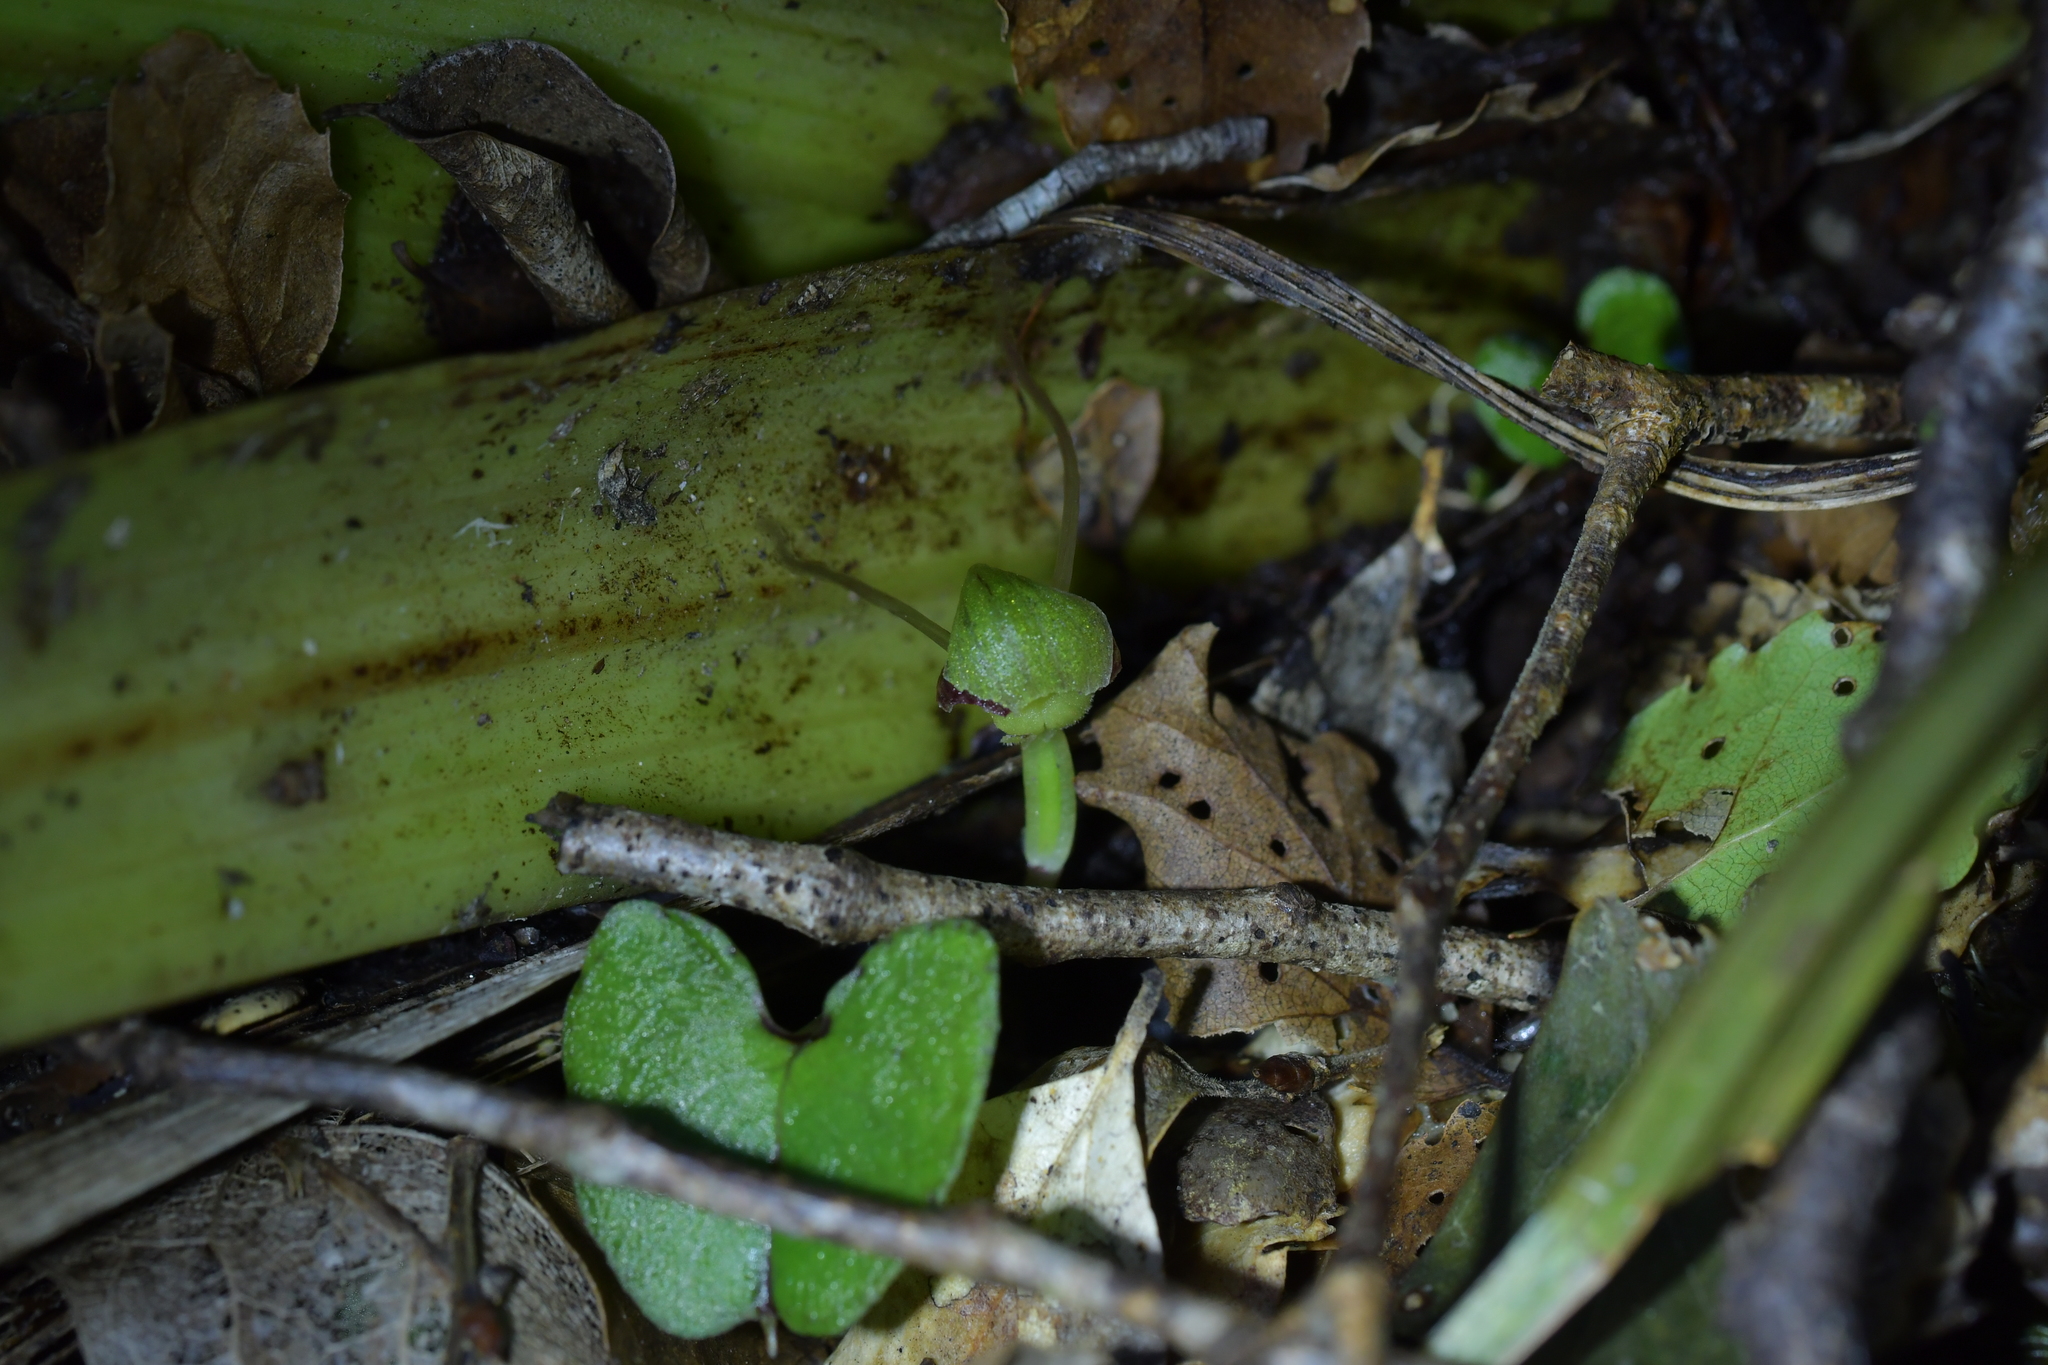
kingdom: Plantae
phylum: Tracheophyta
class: Liliopsida
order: Asparagales
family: Orchidaceae
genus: Corybas
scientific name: Corybas vitreus
